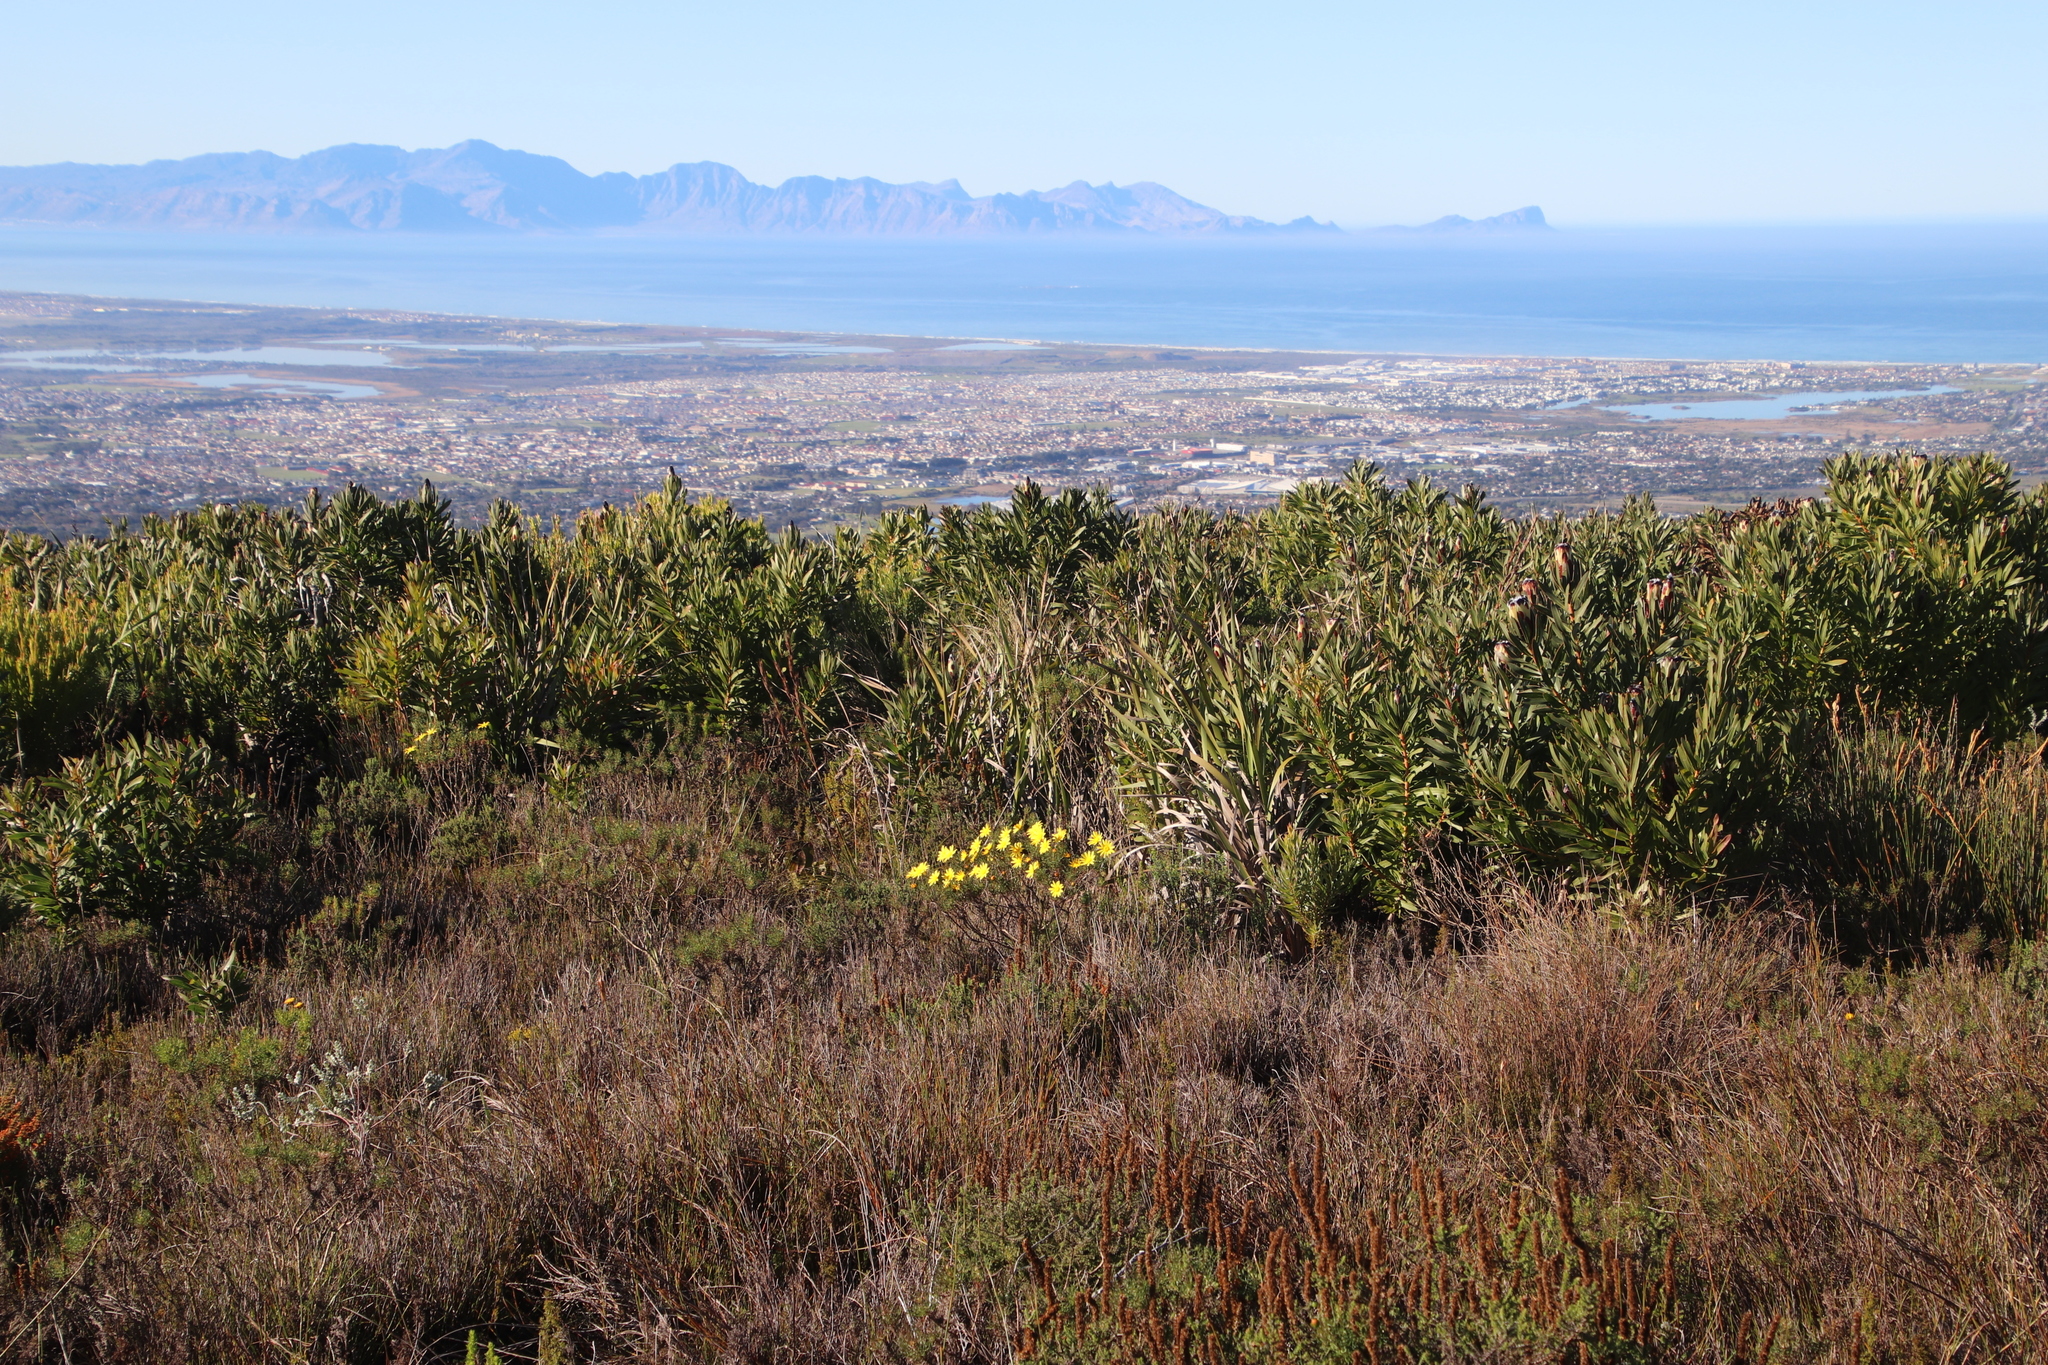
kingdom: Plantae
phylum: Tracheophyta
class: Magnoliopsida
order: Asterales
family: Asteraceae
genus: Euryops
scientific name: Euryops abrotanifolius
